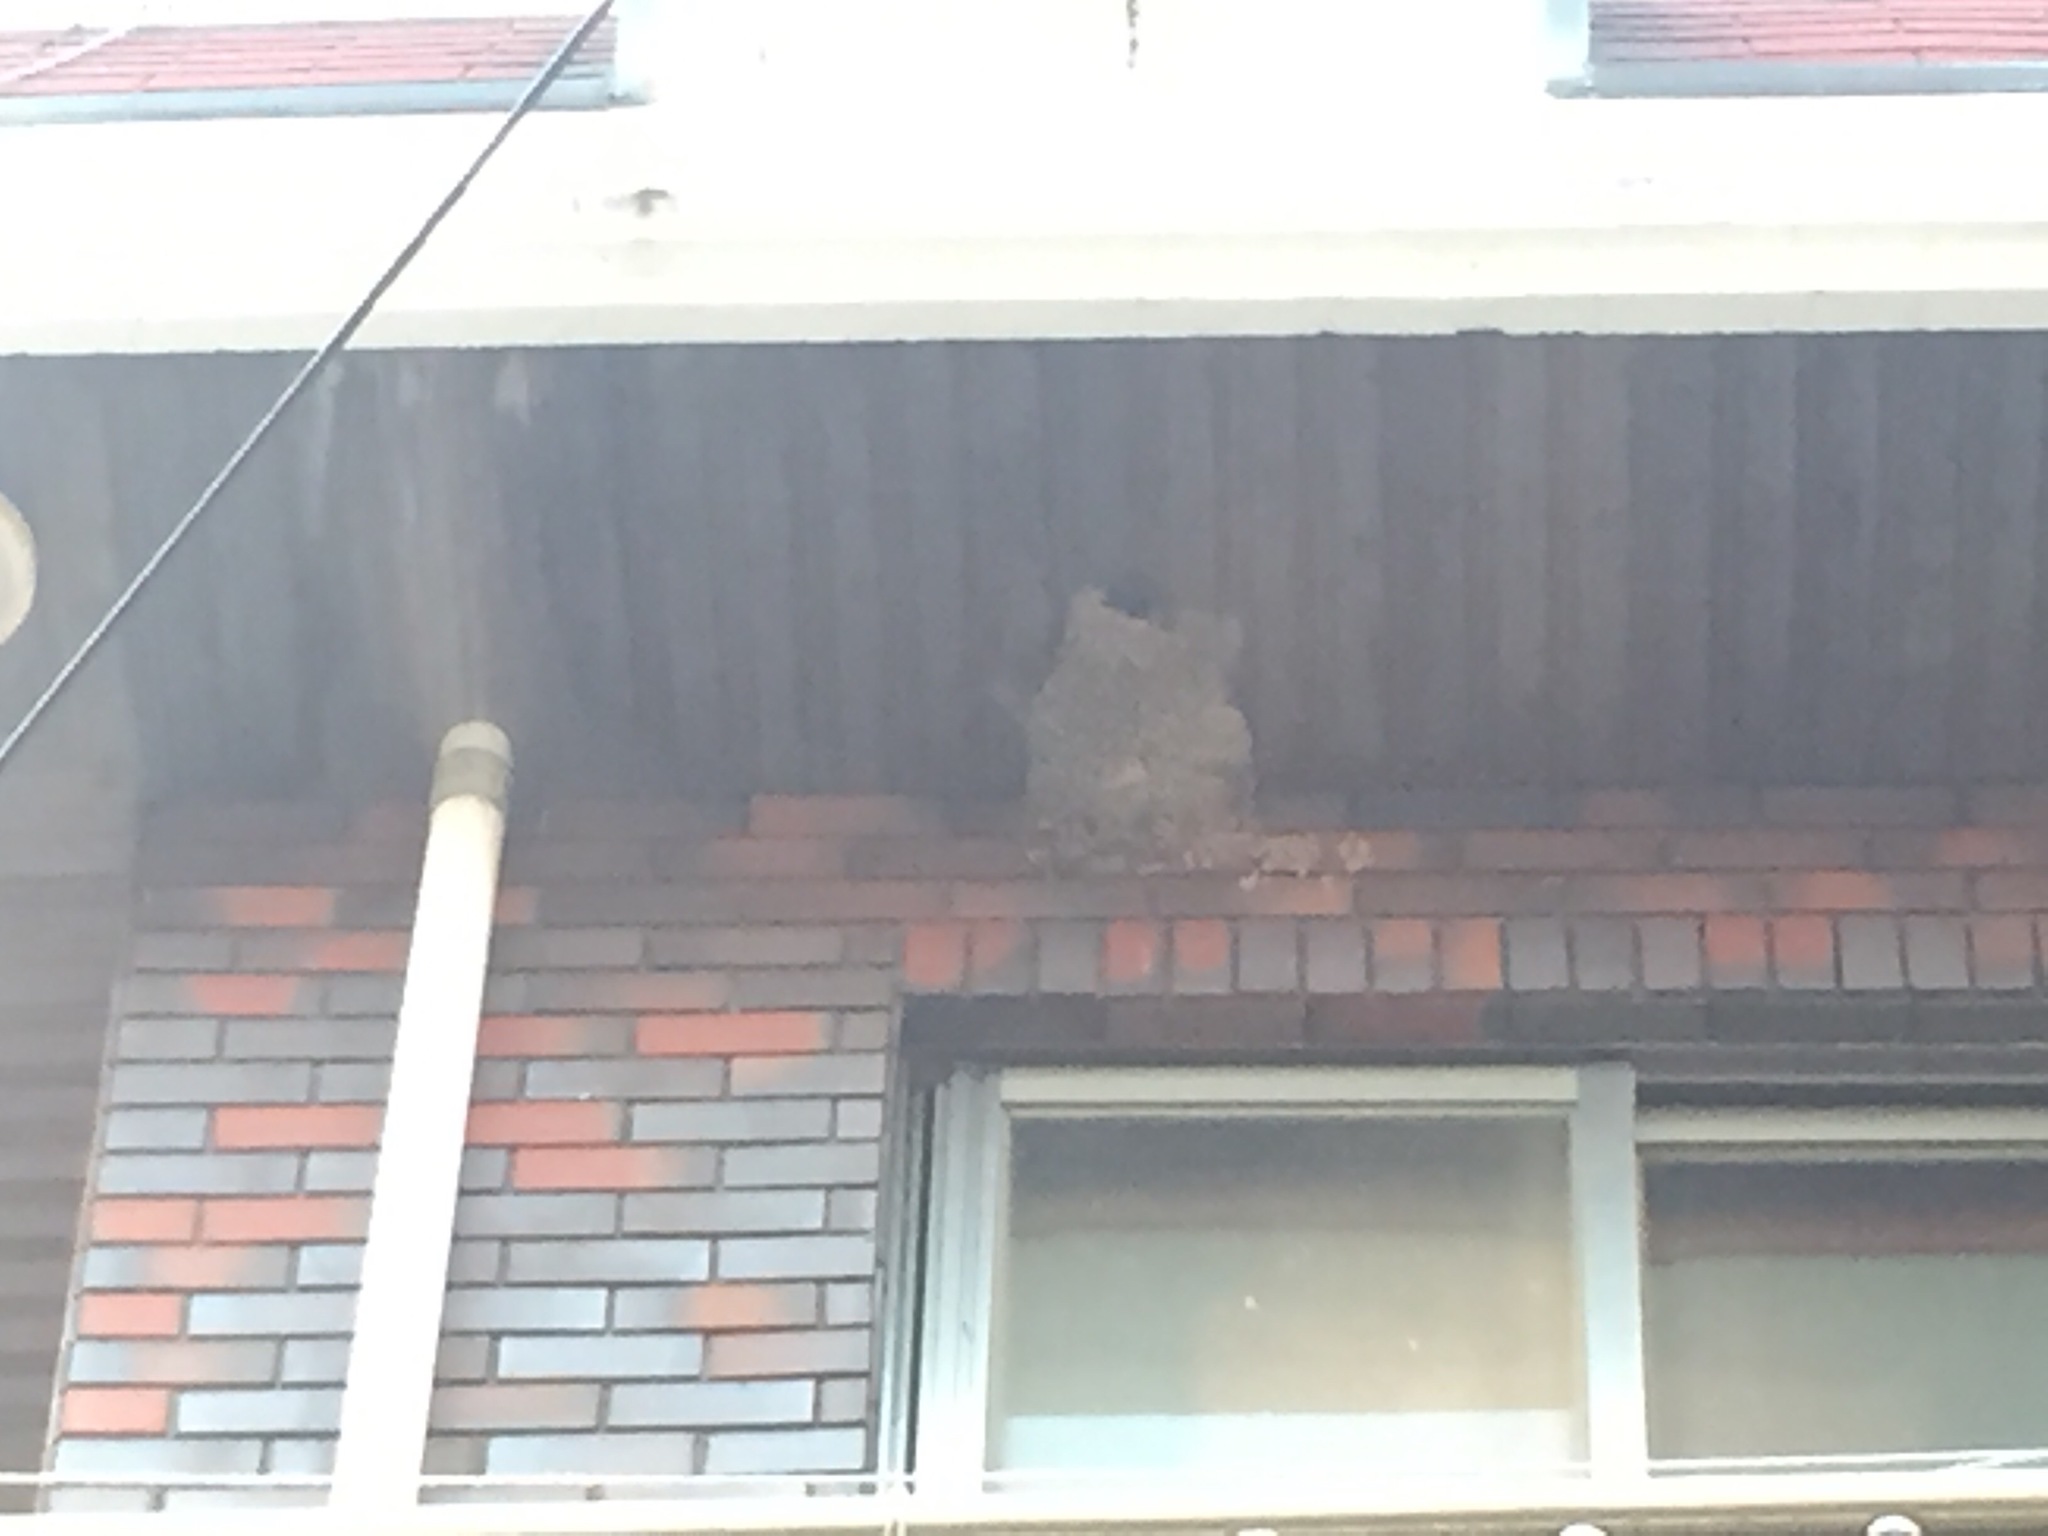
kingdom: Animalia
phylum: Chordata
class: Aves
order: Passeriformes
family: Hirundinidae
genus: Cecropis
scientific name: Cecropis daurica
